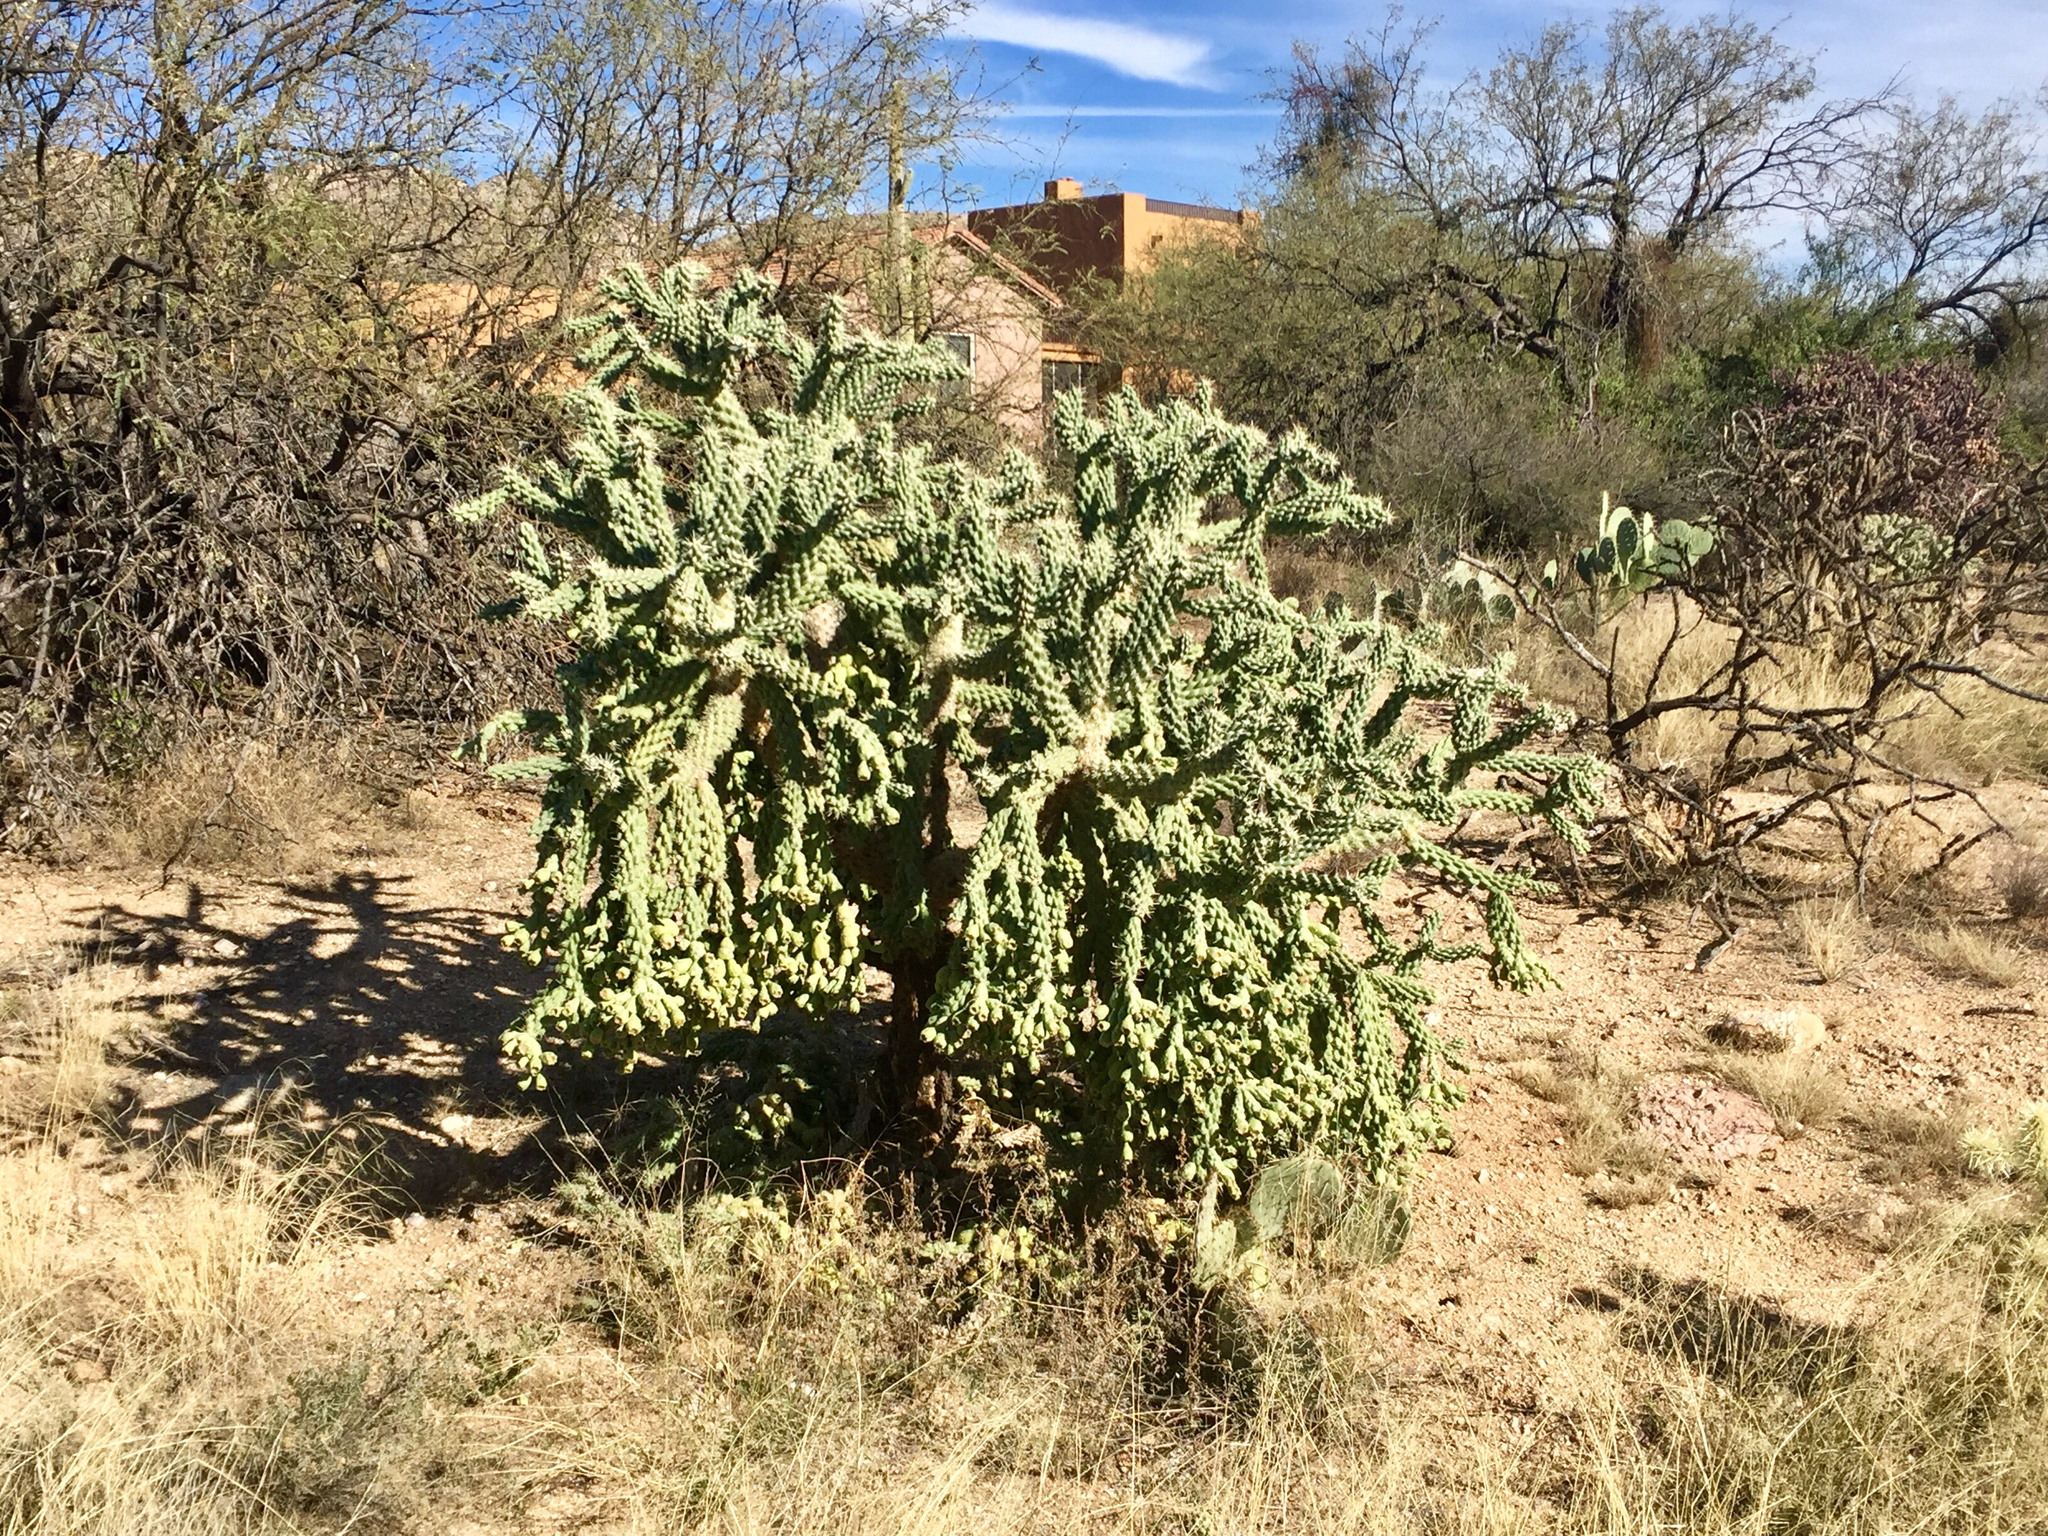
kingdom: Plantae
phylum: Tracheophyta
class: Magnoliopsida
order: Caryophyllales
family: Cactaceae
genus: Cylindropuntia
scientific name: Cylindropuntia fulgida
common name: Jumping cholla
